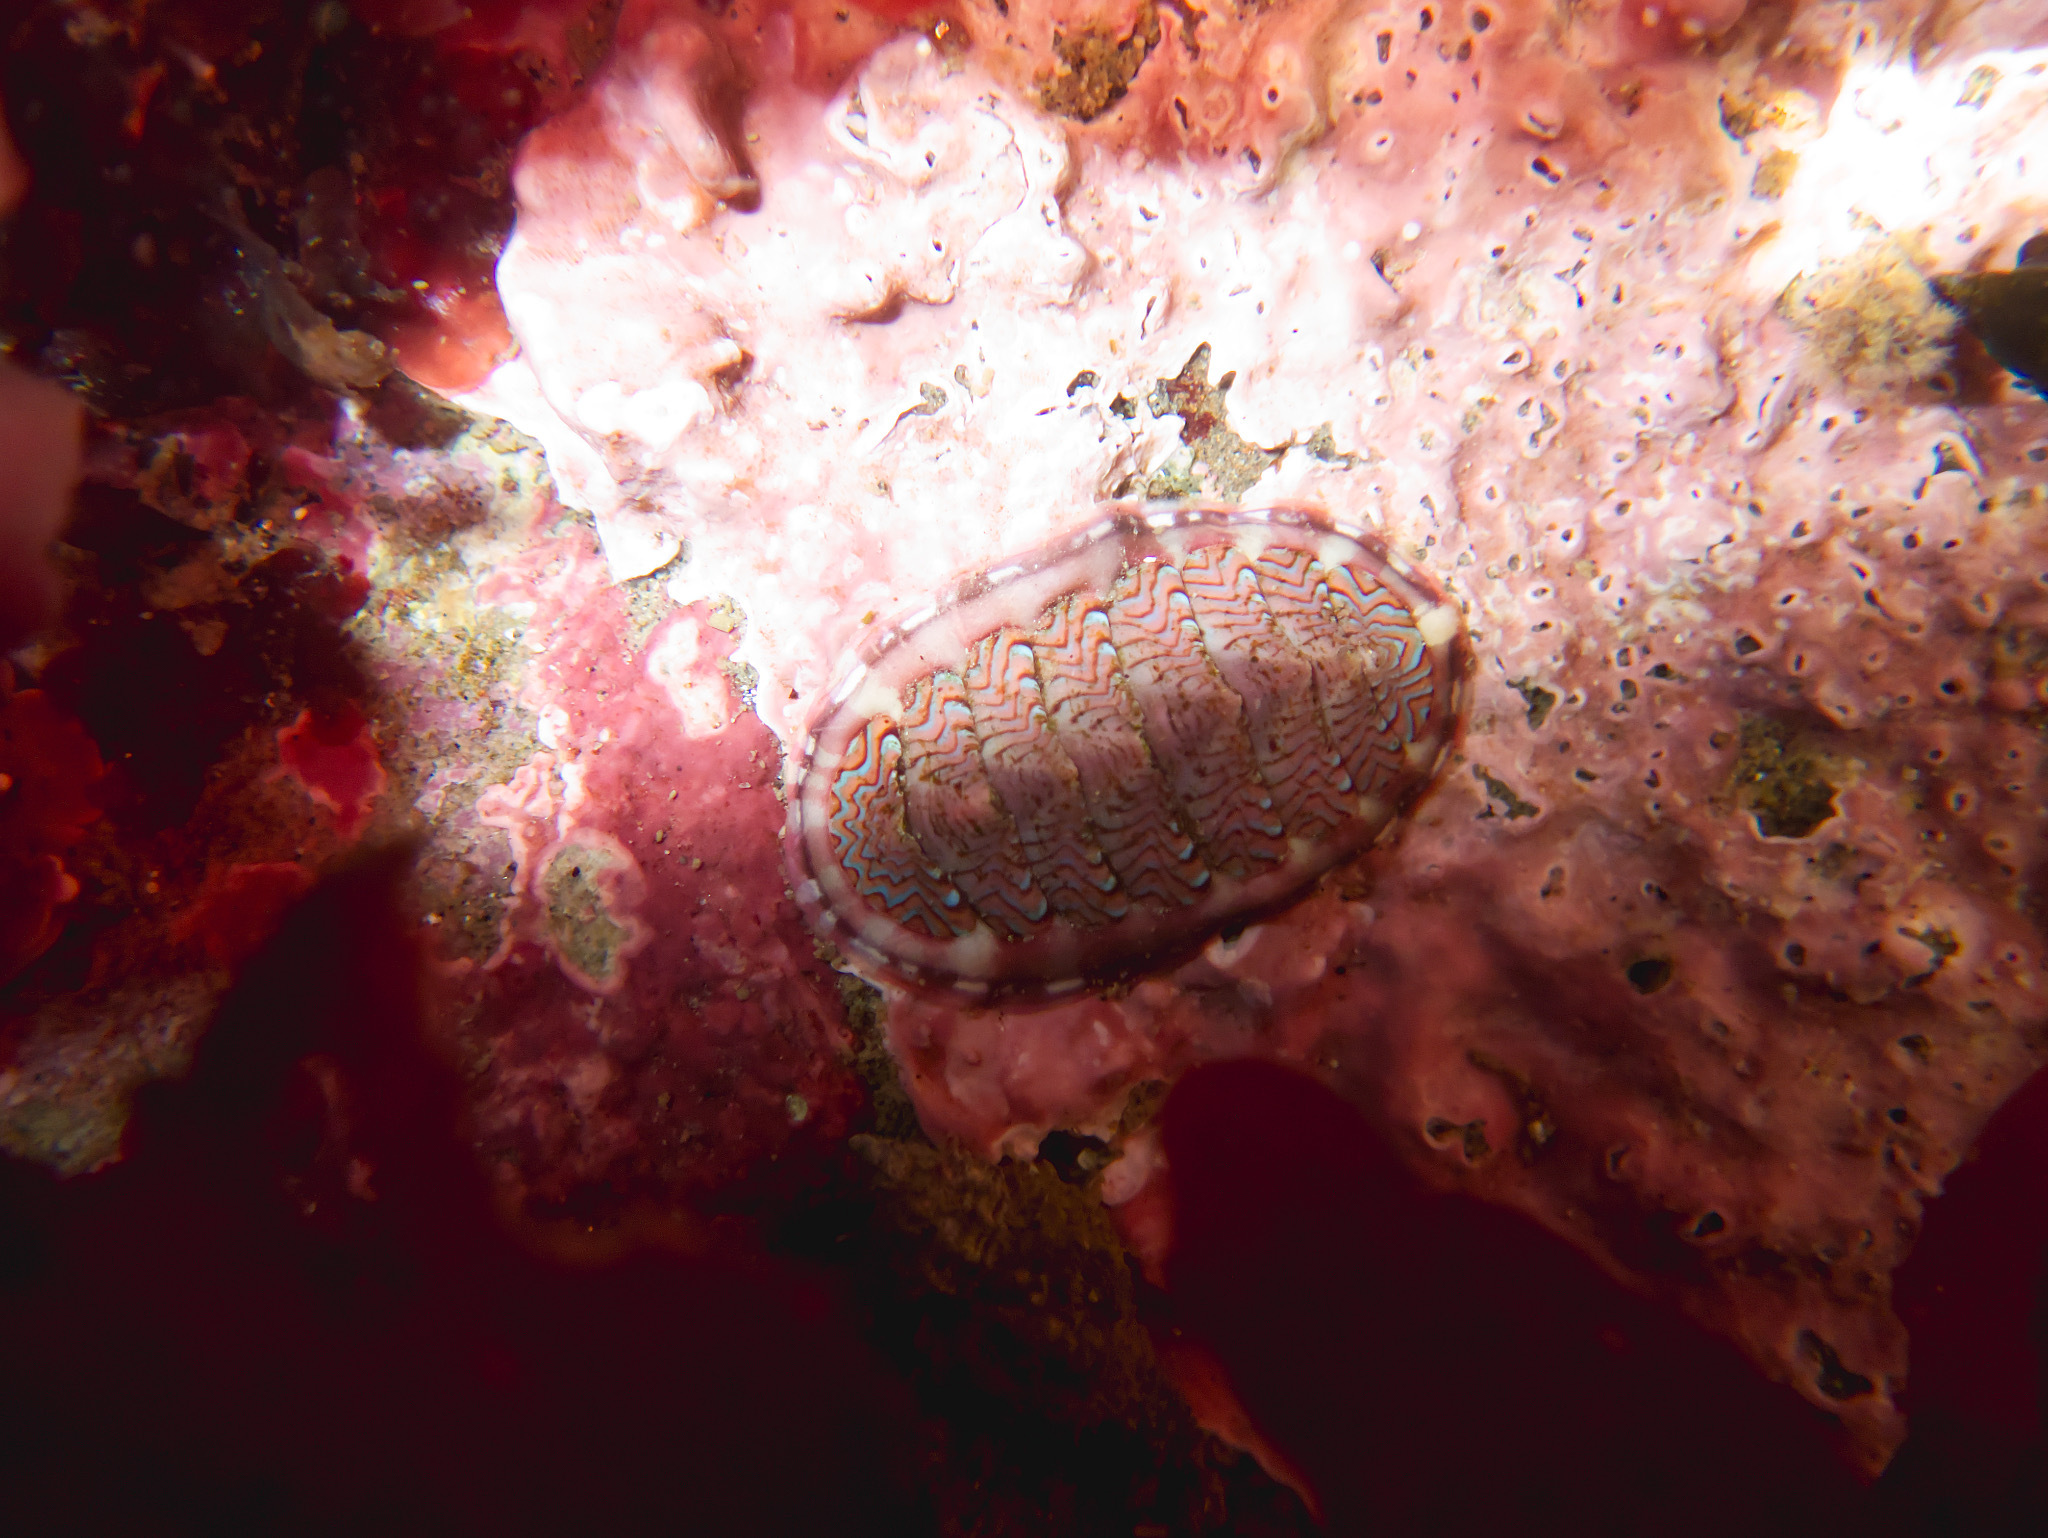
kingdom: Animalia
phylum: Mollusca
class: Polyplacophora
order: Chitonida
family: Tonicellidae
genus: Tonicella
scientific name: Tonicella lokii
